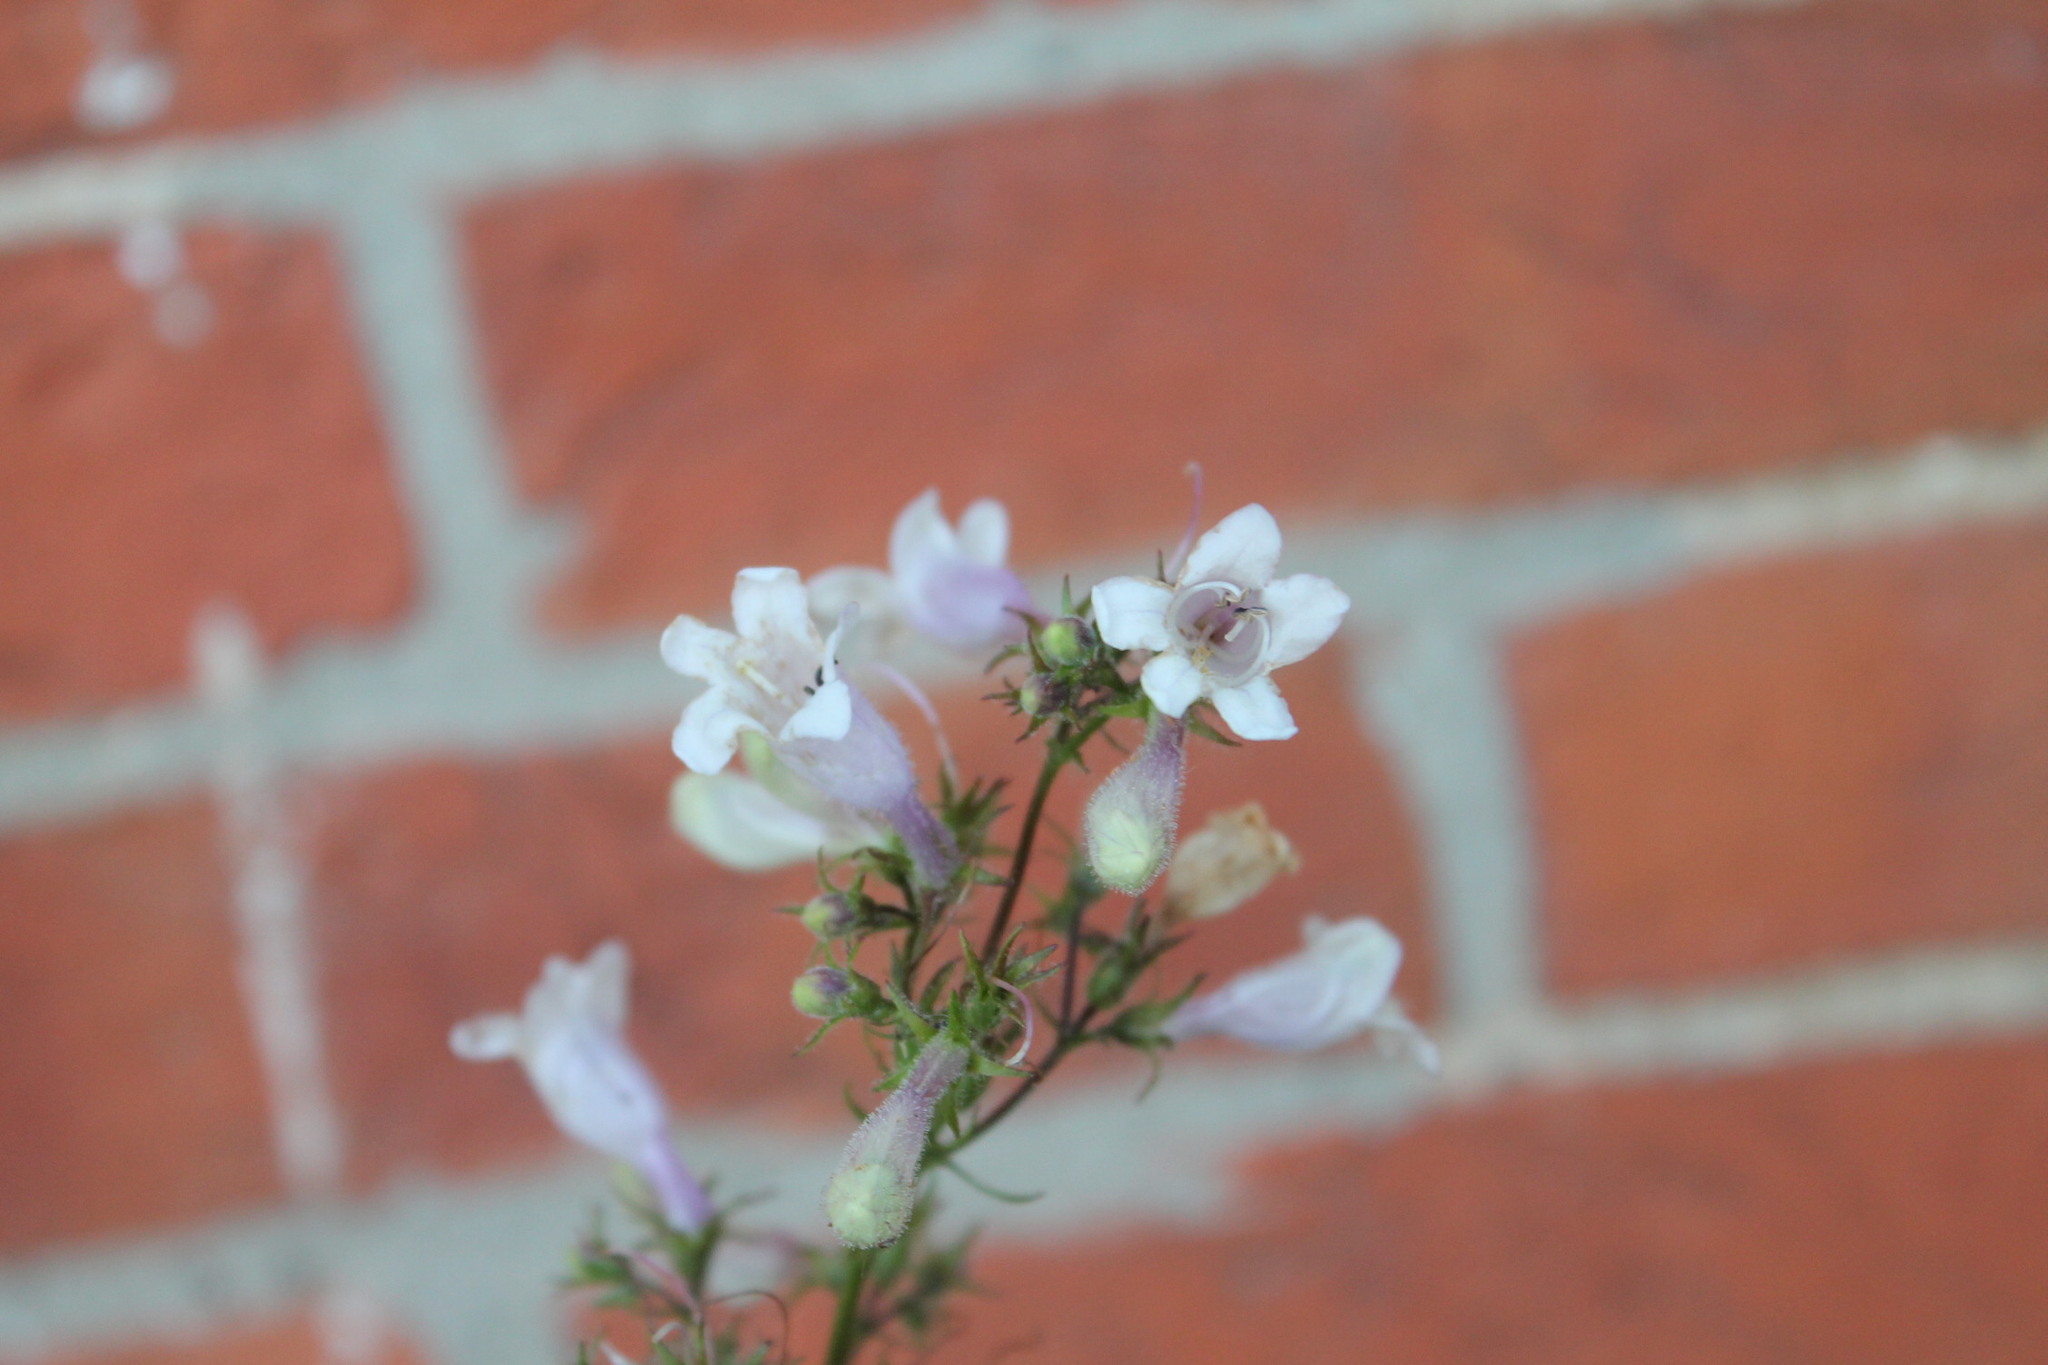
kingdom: Plantae
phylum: Tracheophyta
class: Magnoliopsida
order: Lamiales
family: Plantaginaceae
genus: Penstemon
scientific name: Penstemon digitalis
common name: Foxglove beardtongue
